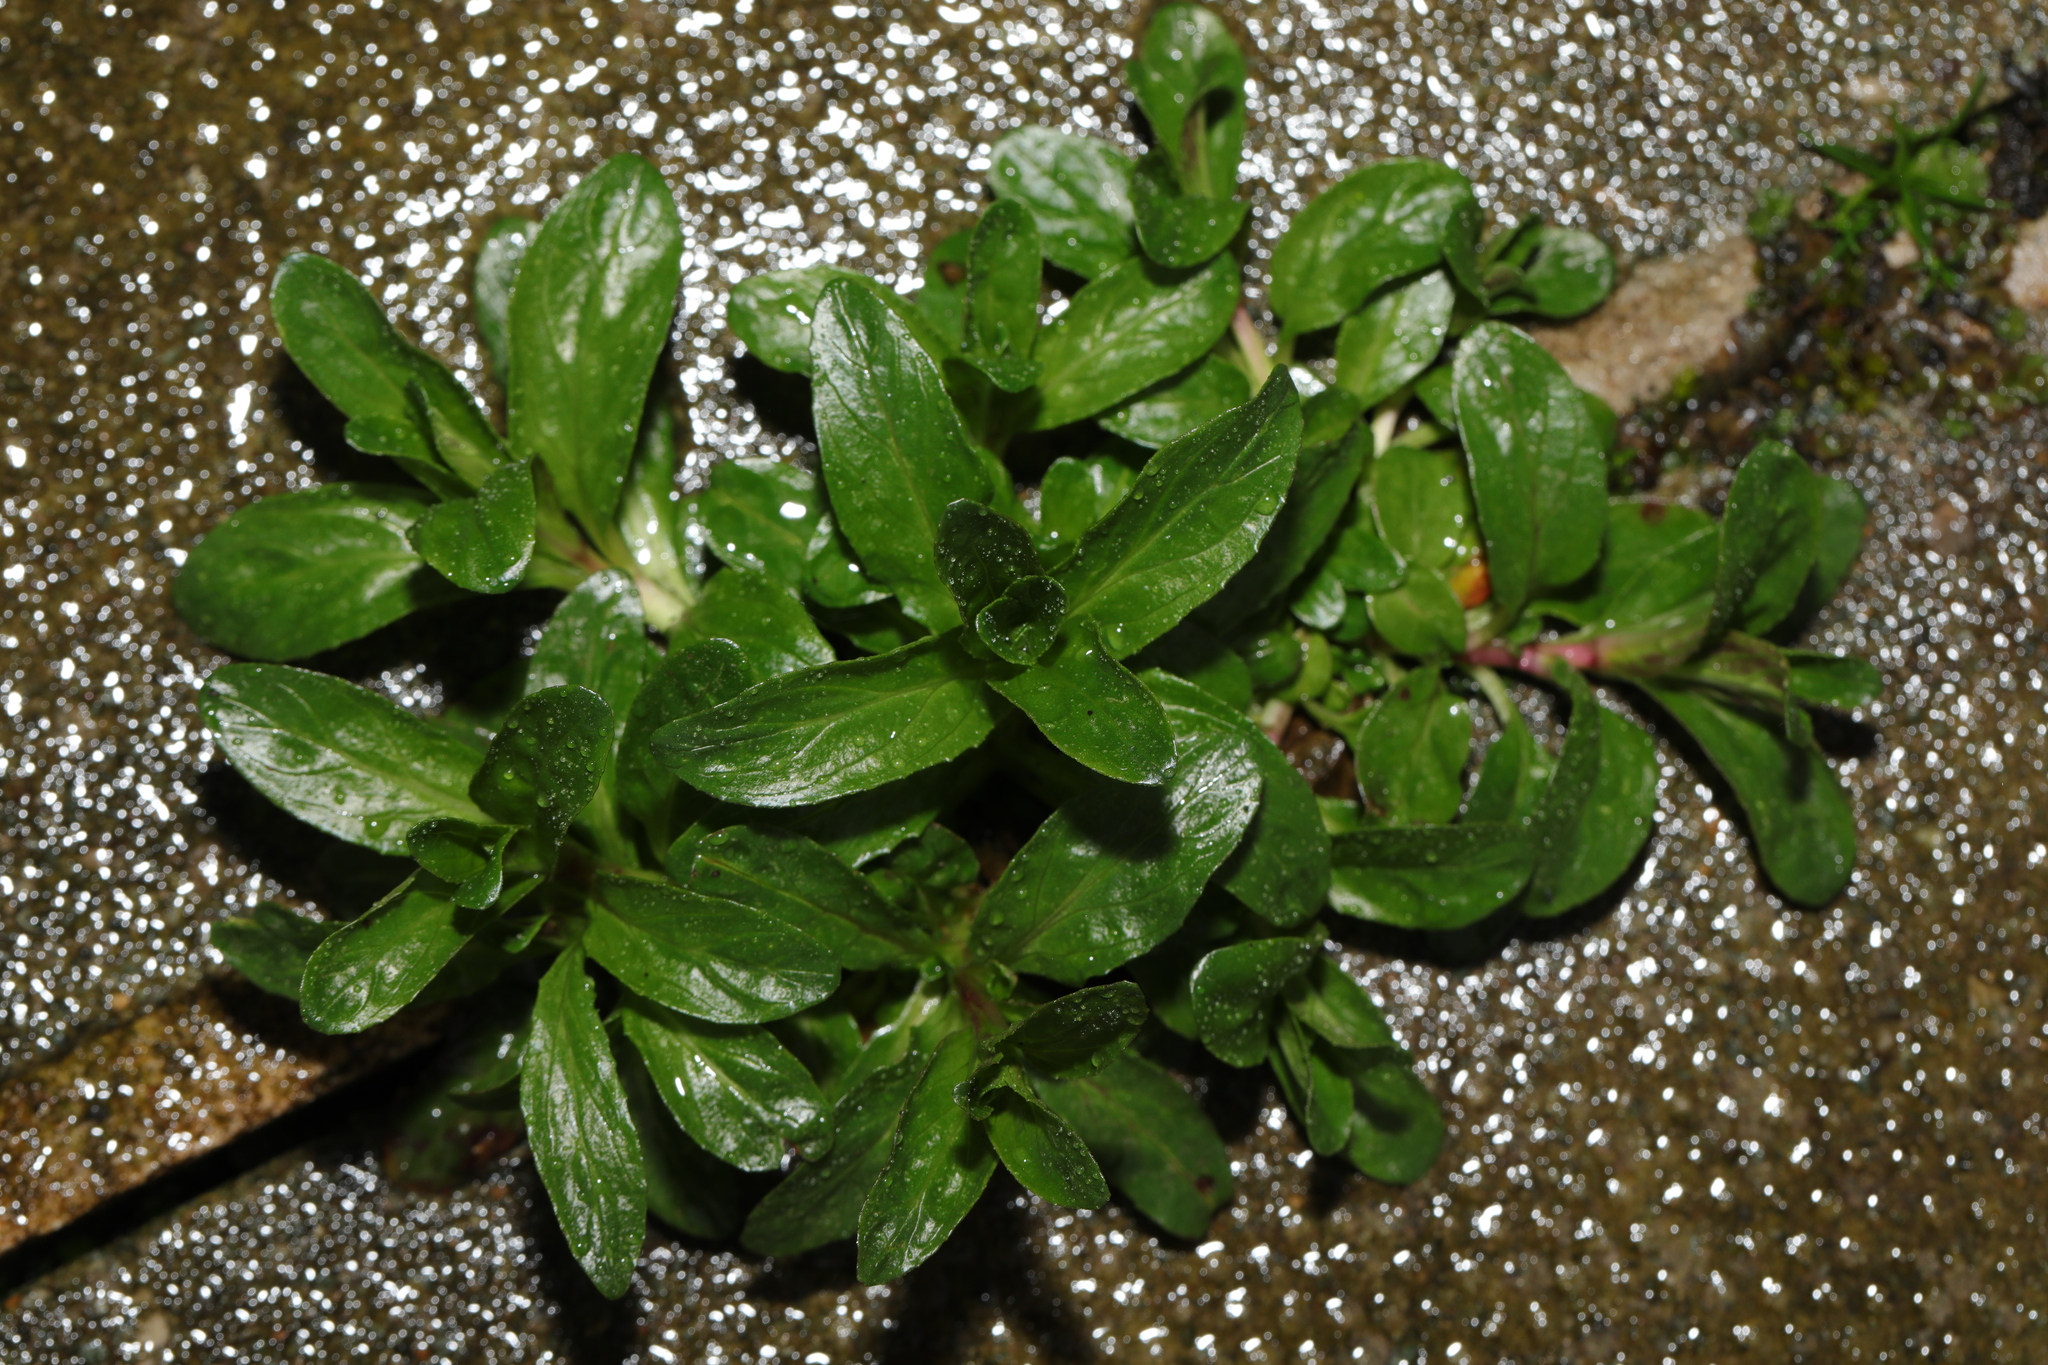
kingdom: Plantae
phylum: Tracheophyta
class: Magnoliopsida
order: Myrtales
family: Onagraceae
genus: Epilobium
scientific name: Epilobium
